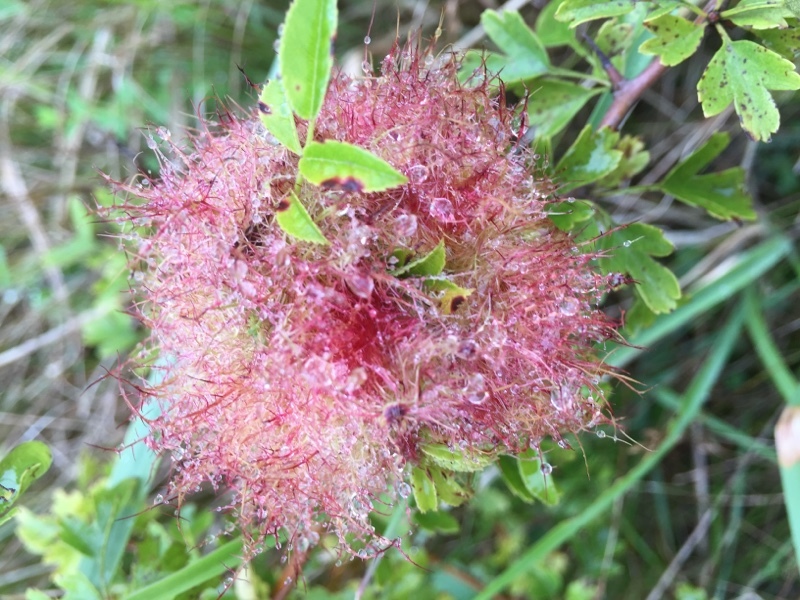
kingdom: Animalia
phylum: Arthropoda
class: Insecta
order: Hymenoptera
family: Cynipidae
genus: Diplolepis
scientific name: Diplolepis rosae
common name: Bedeguar gall
